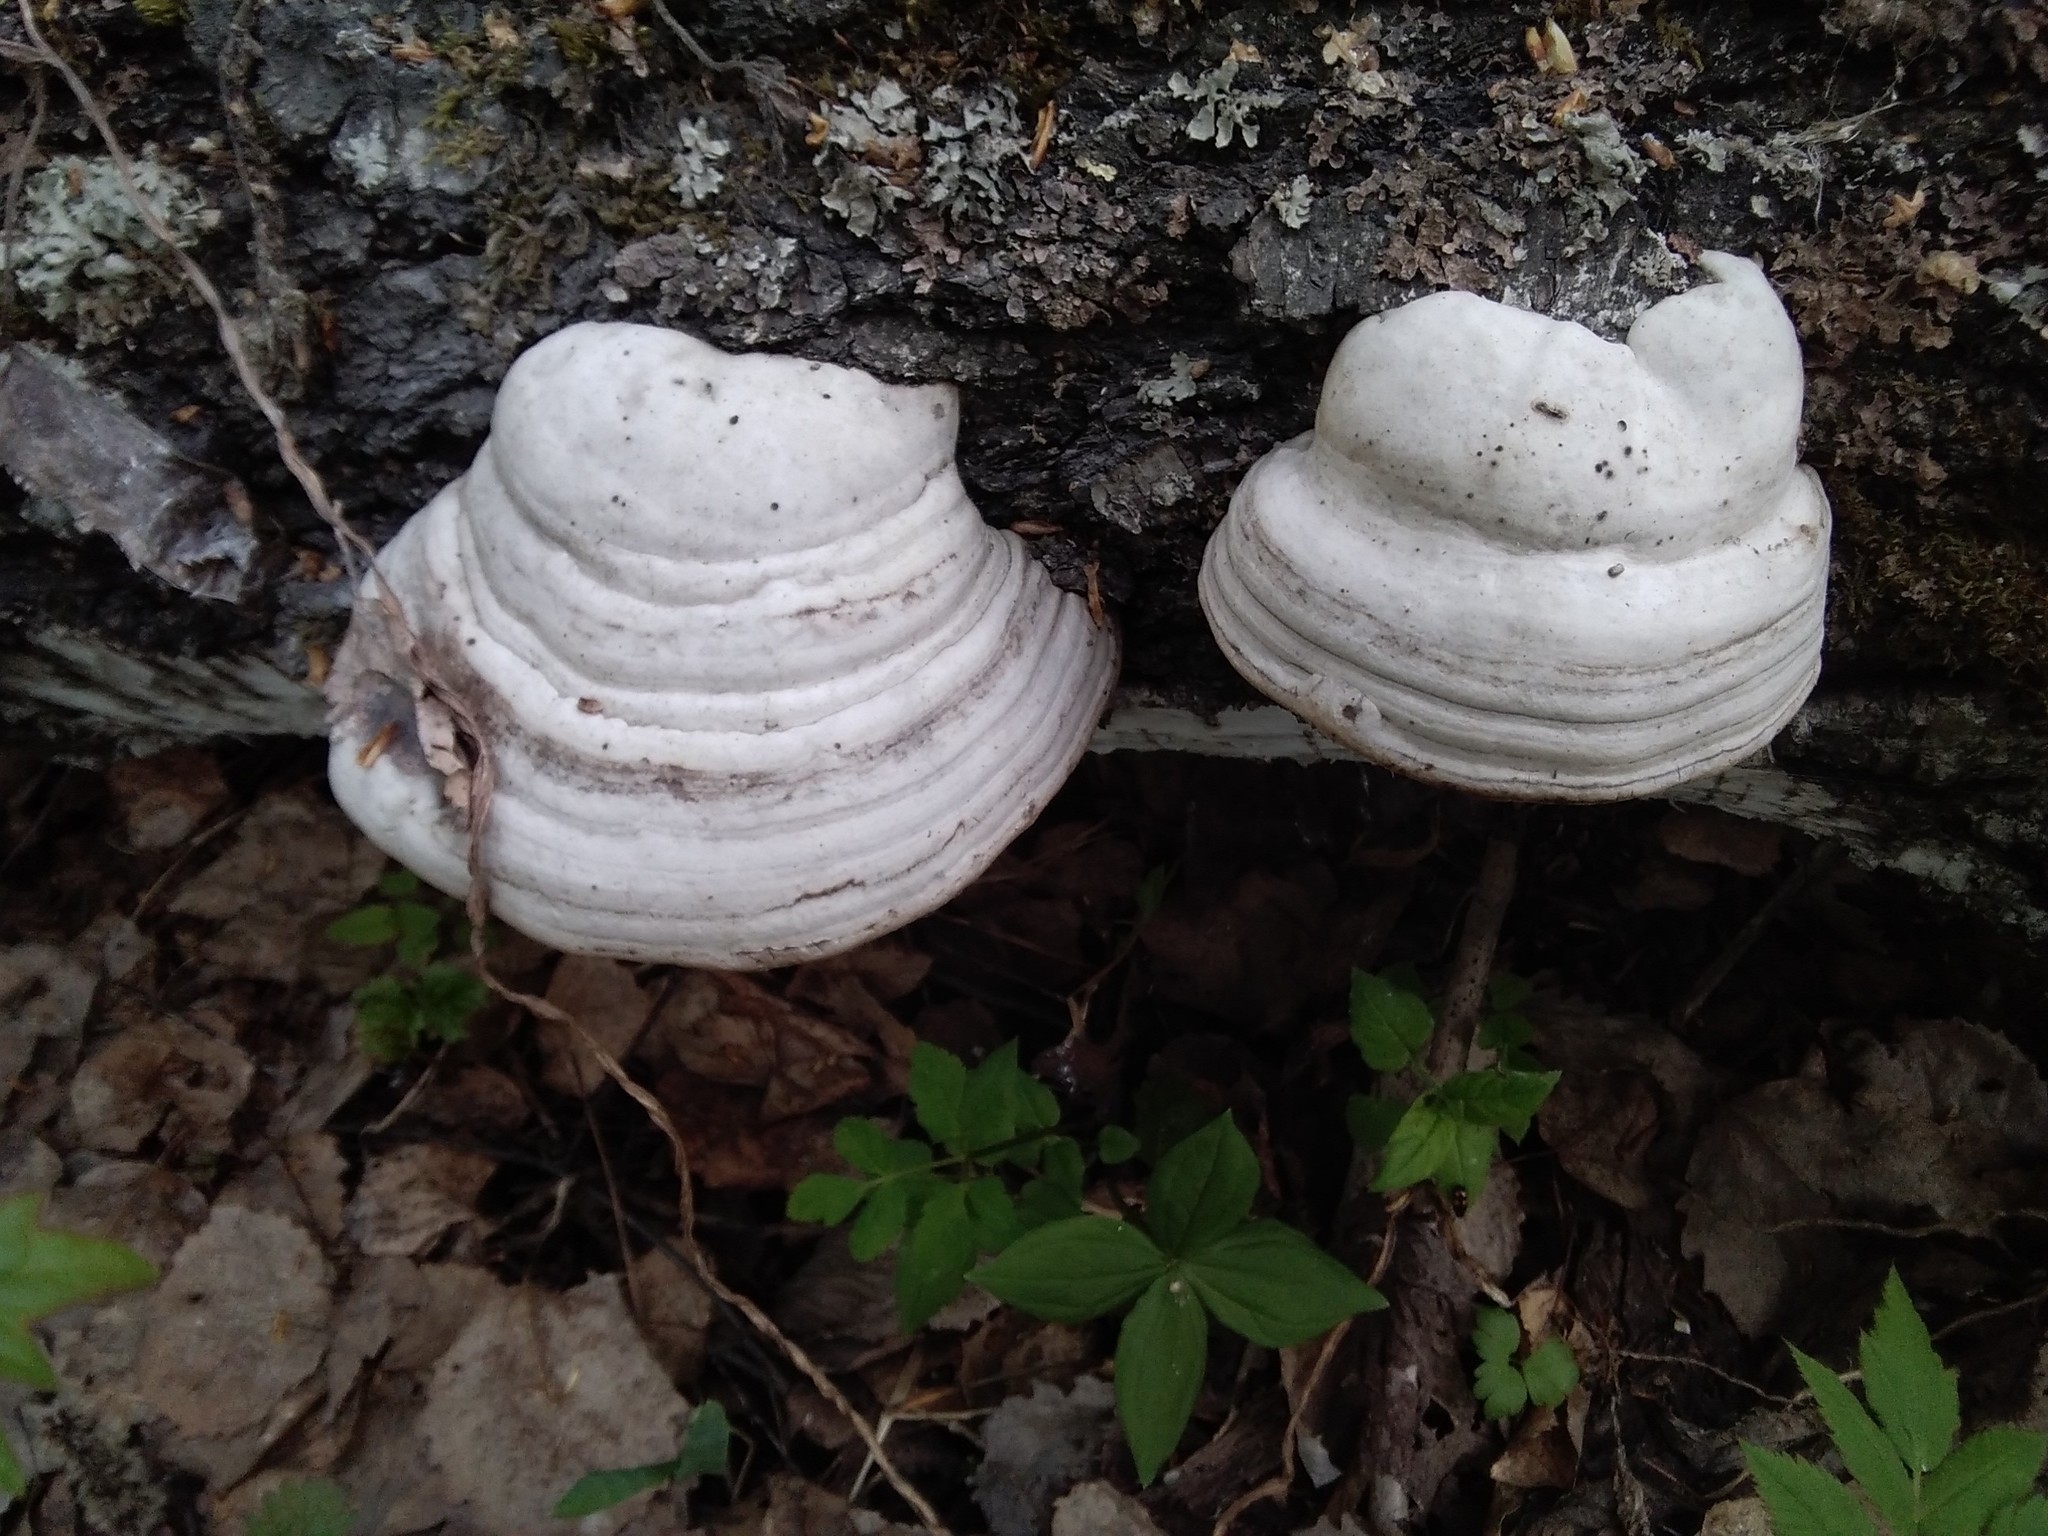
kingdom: Fungi
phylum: Basidiomycota
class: Agaricomycetes
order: Polyporales
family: Polyporaceae
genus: Fomes
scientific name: Fomes fomentarius
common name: Hoof fungus
